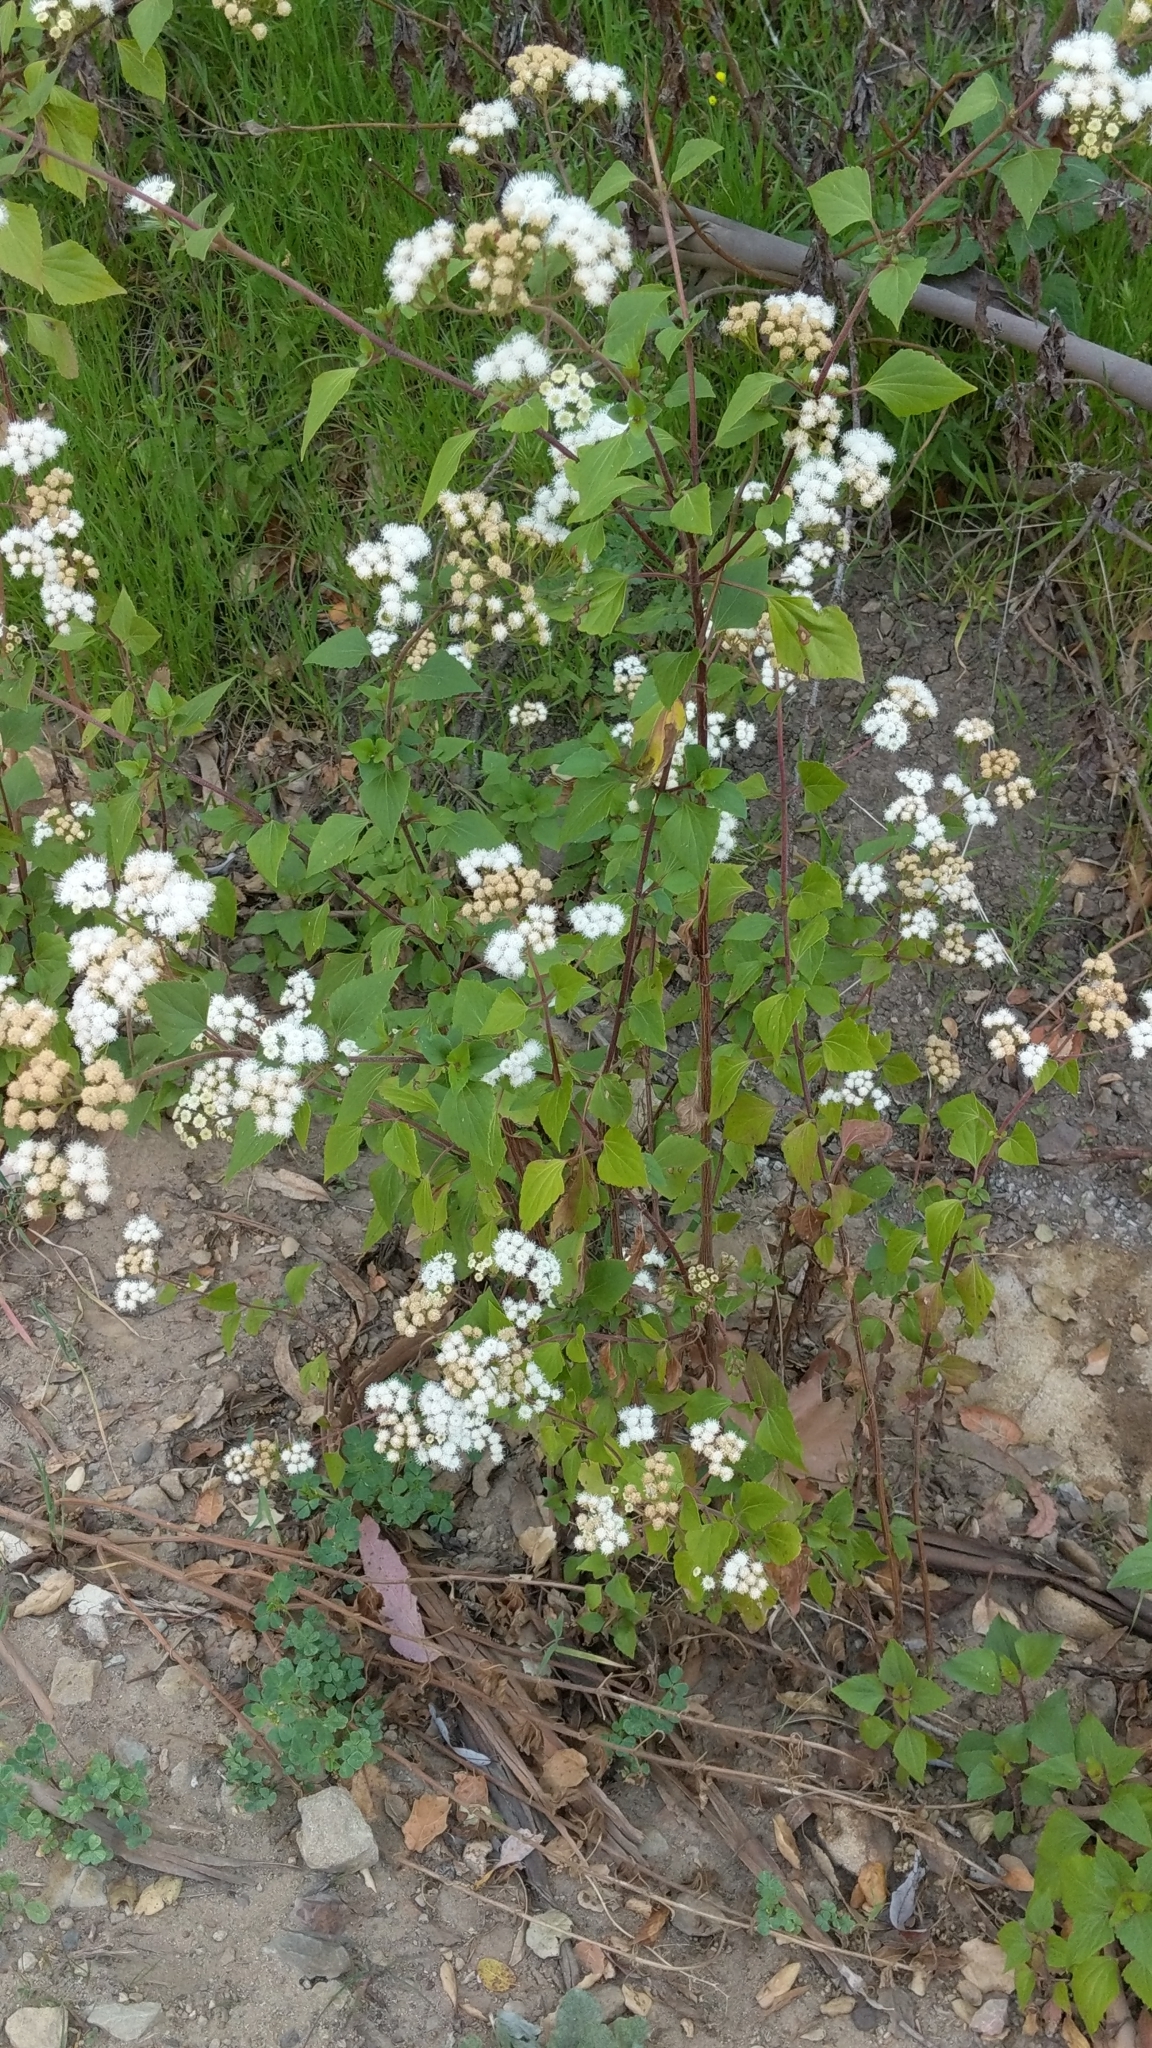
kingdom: Plantae
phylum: Tracheophyta
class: Magnoliopsida
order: Asterales
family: Asteraceae
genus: Ageratina
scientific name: Ageratina adenophora
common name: Sticky snakeroot
